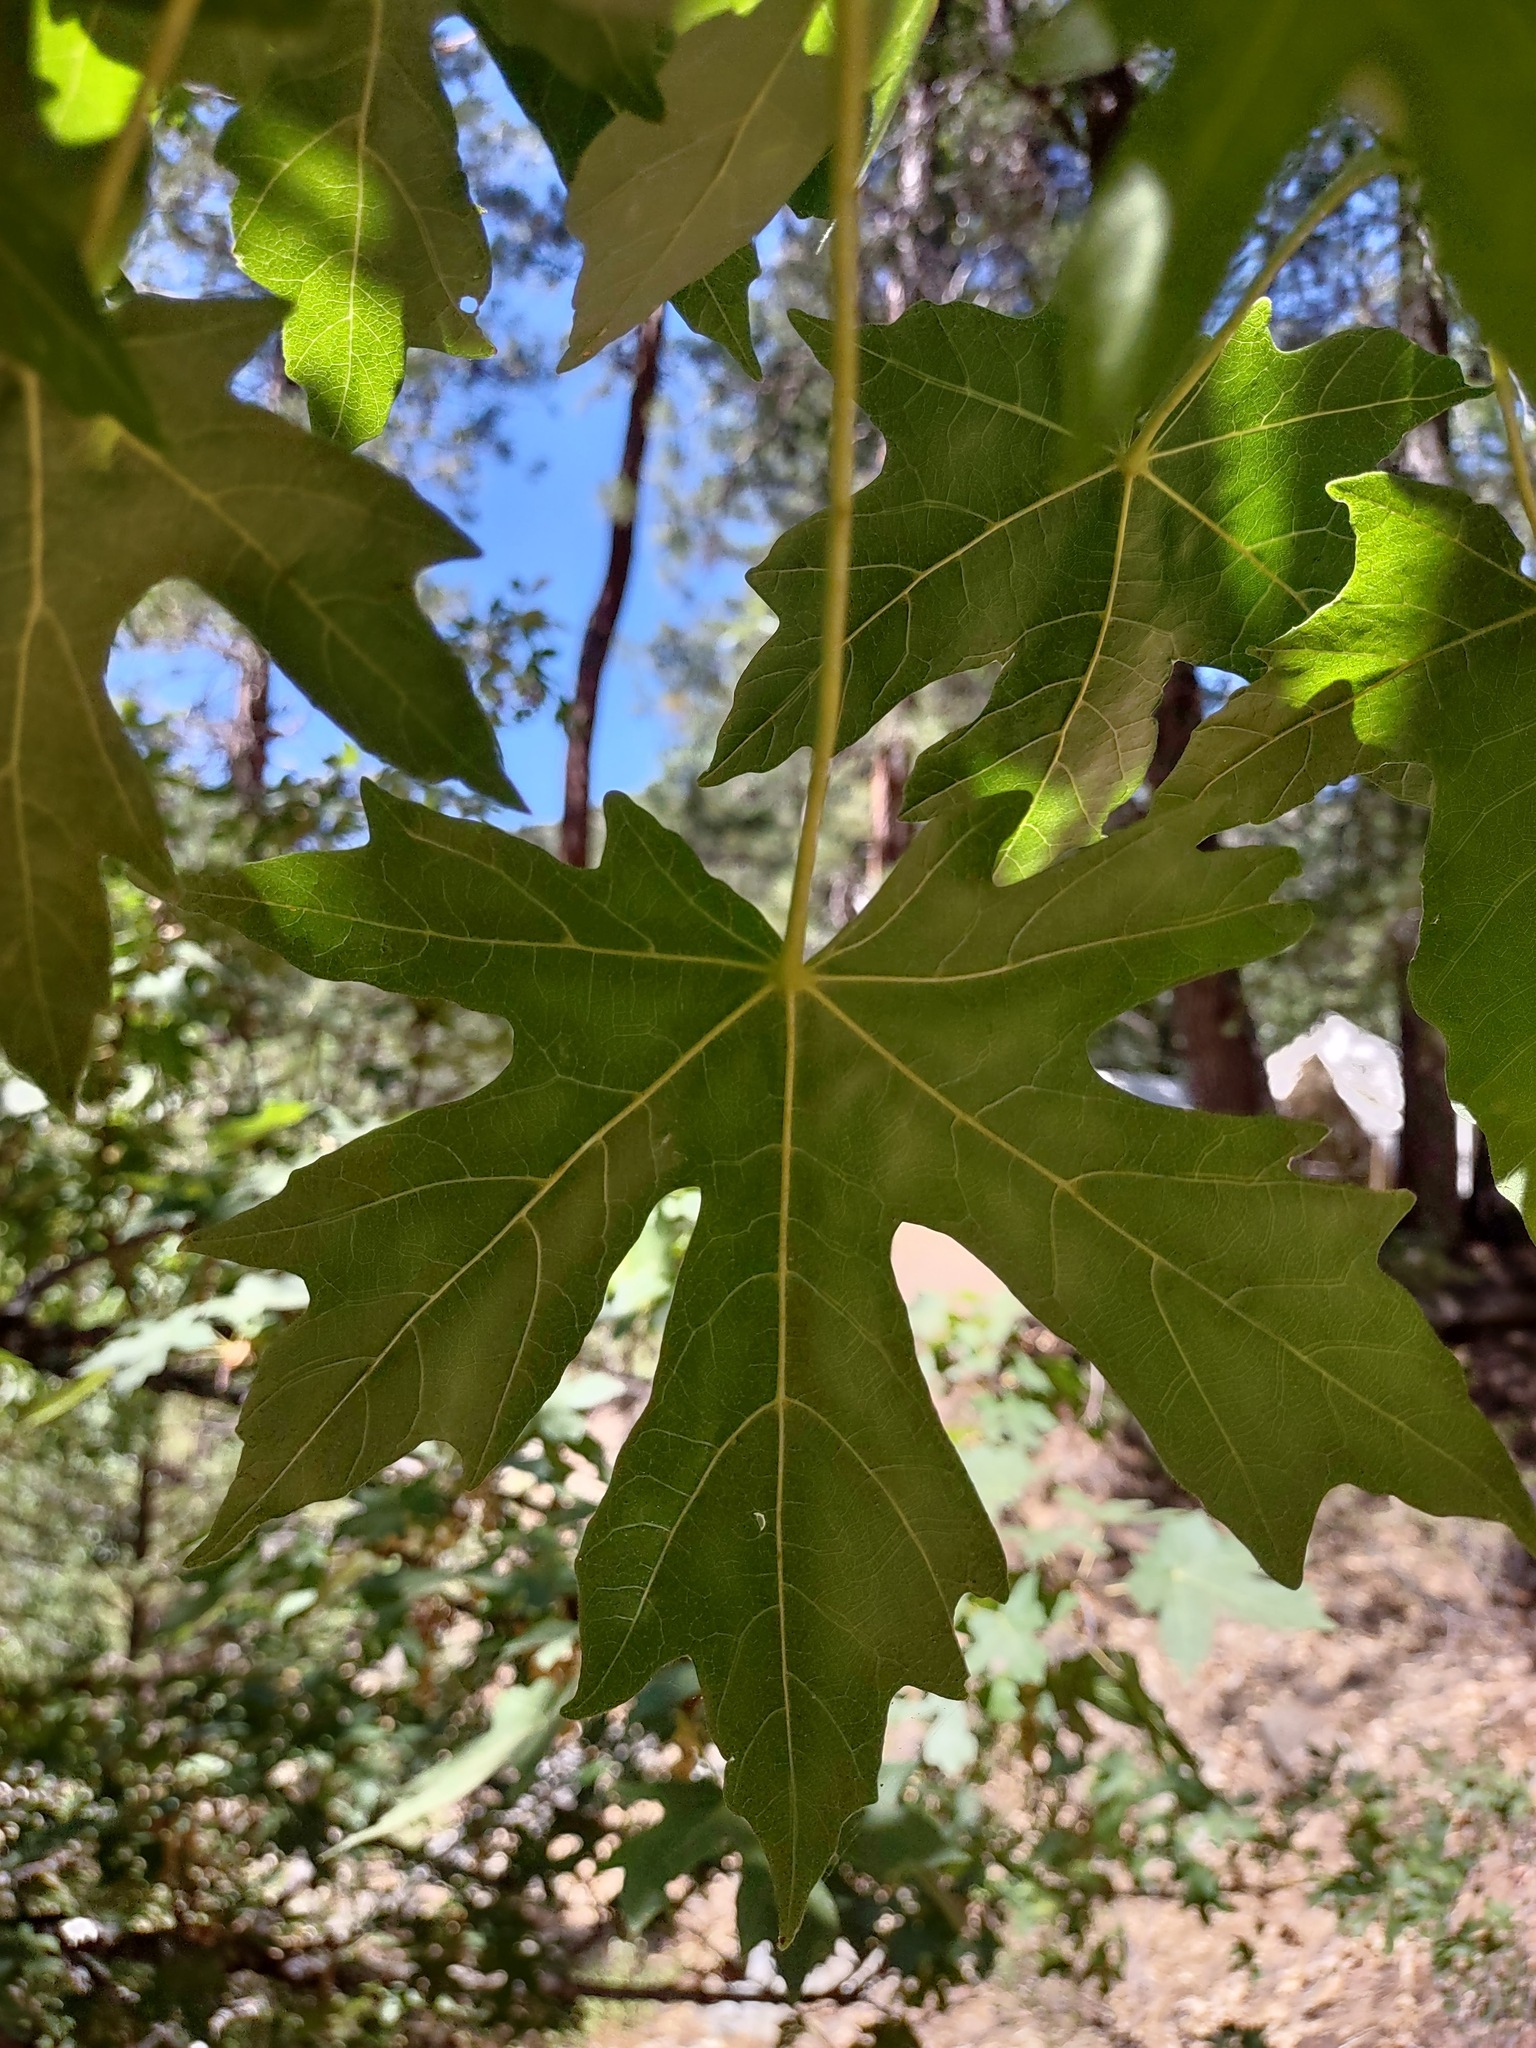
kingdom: Plantae
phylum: Tracheophyta
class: Magnoliopsida
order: Sapindales
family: Sapindaceae
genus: Acer
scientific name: Acer macrophyllum
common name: Oregon maple
